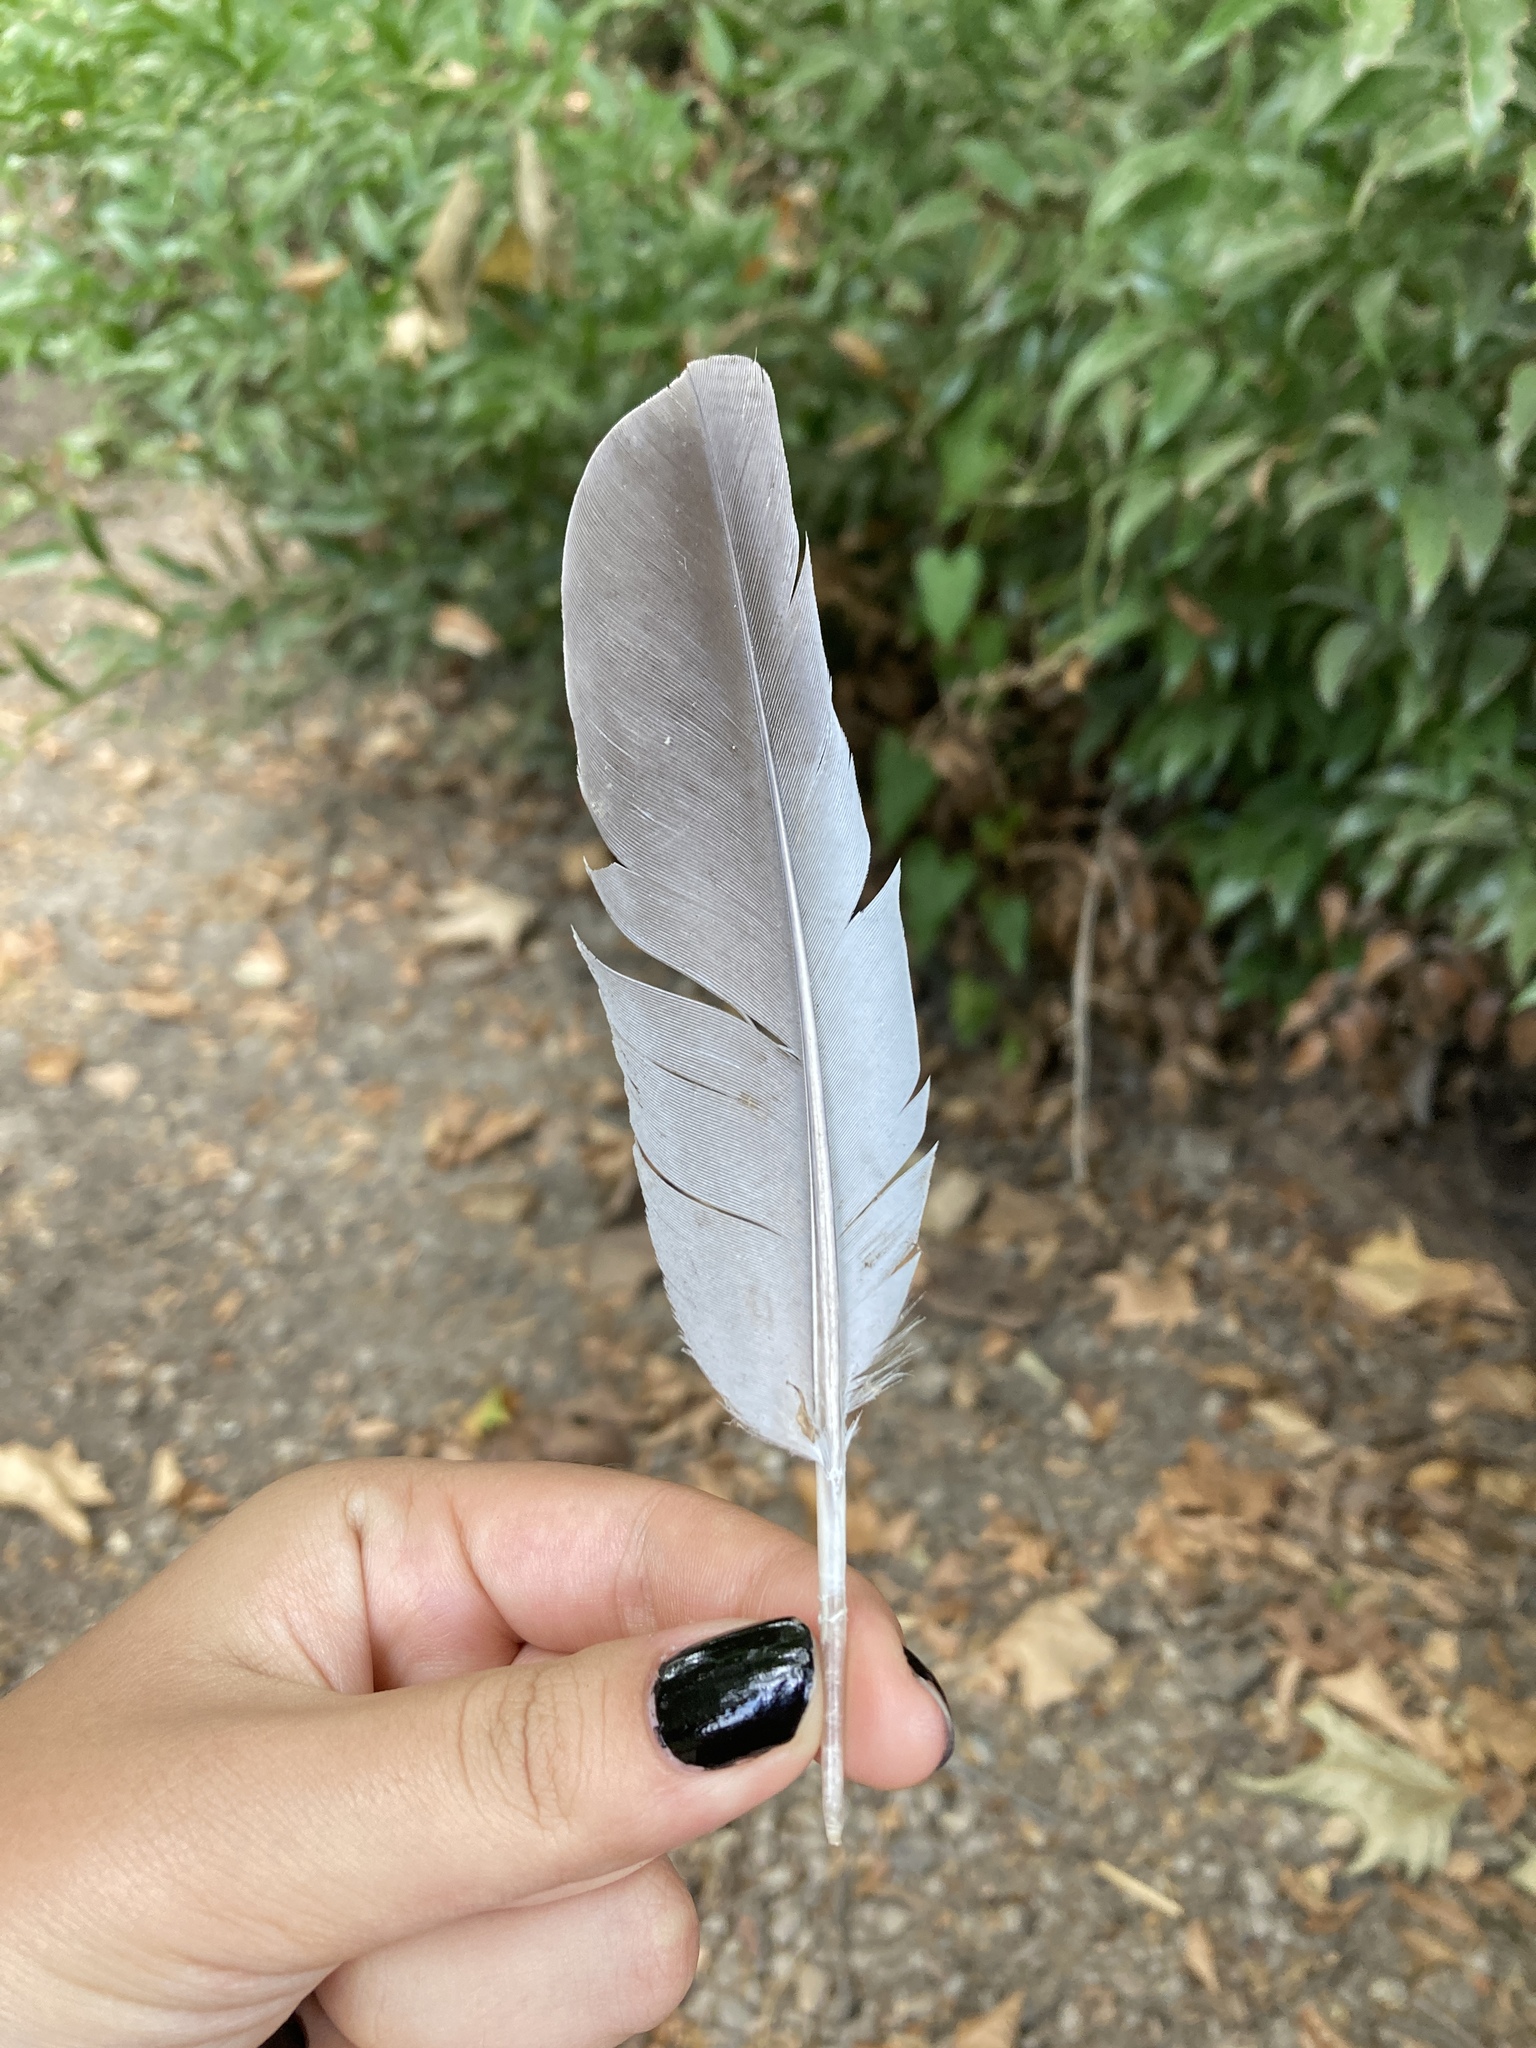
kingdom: Animalia
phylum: Chordata
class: Aves
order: Columbiformes
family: Columbidae
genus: Columba
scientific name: Columba oenas
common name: Stock dove
